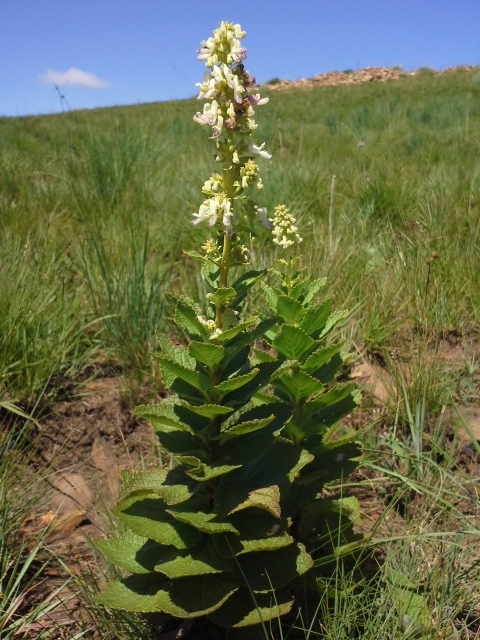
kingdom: Plantae
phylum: Tracheophyta
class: Magnoliopsida
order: Lamiales
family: Lamiaceae
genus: Coleus
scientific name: Coleus calycinus
